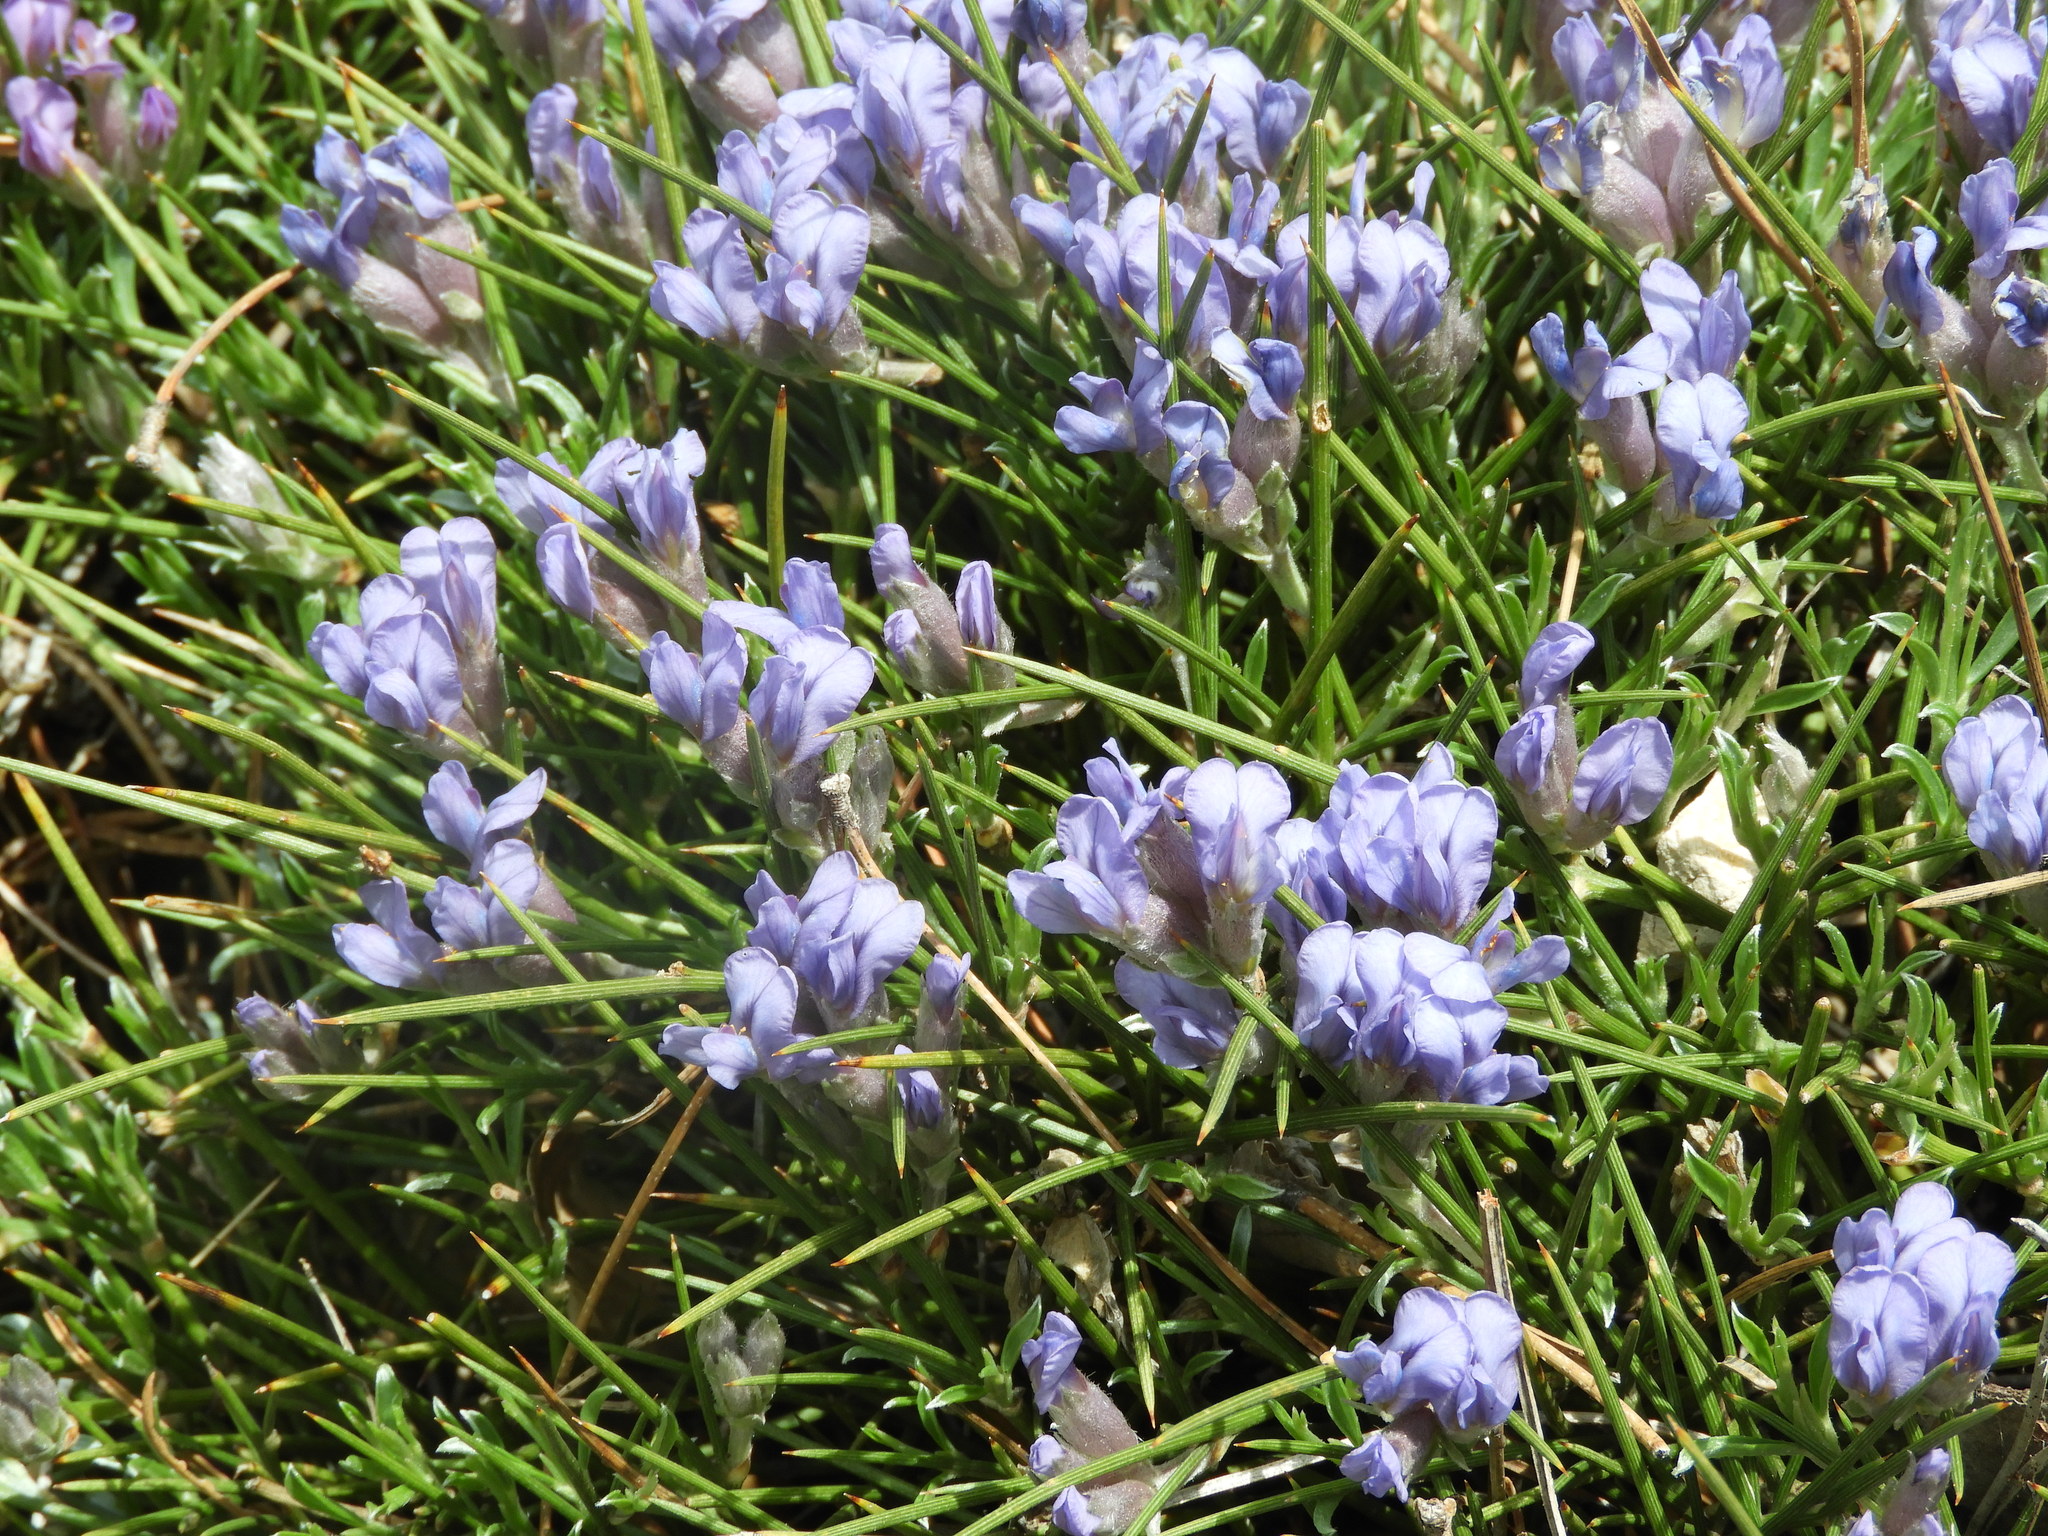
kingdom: Plantae
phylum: Tracheophyta
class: Magnoliopsida
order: Fabales
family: Fabaceae
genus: Erinacea
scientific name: Erinacea anthyllis
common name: Hedgehog-broom
